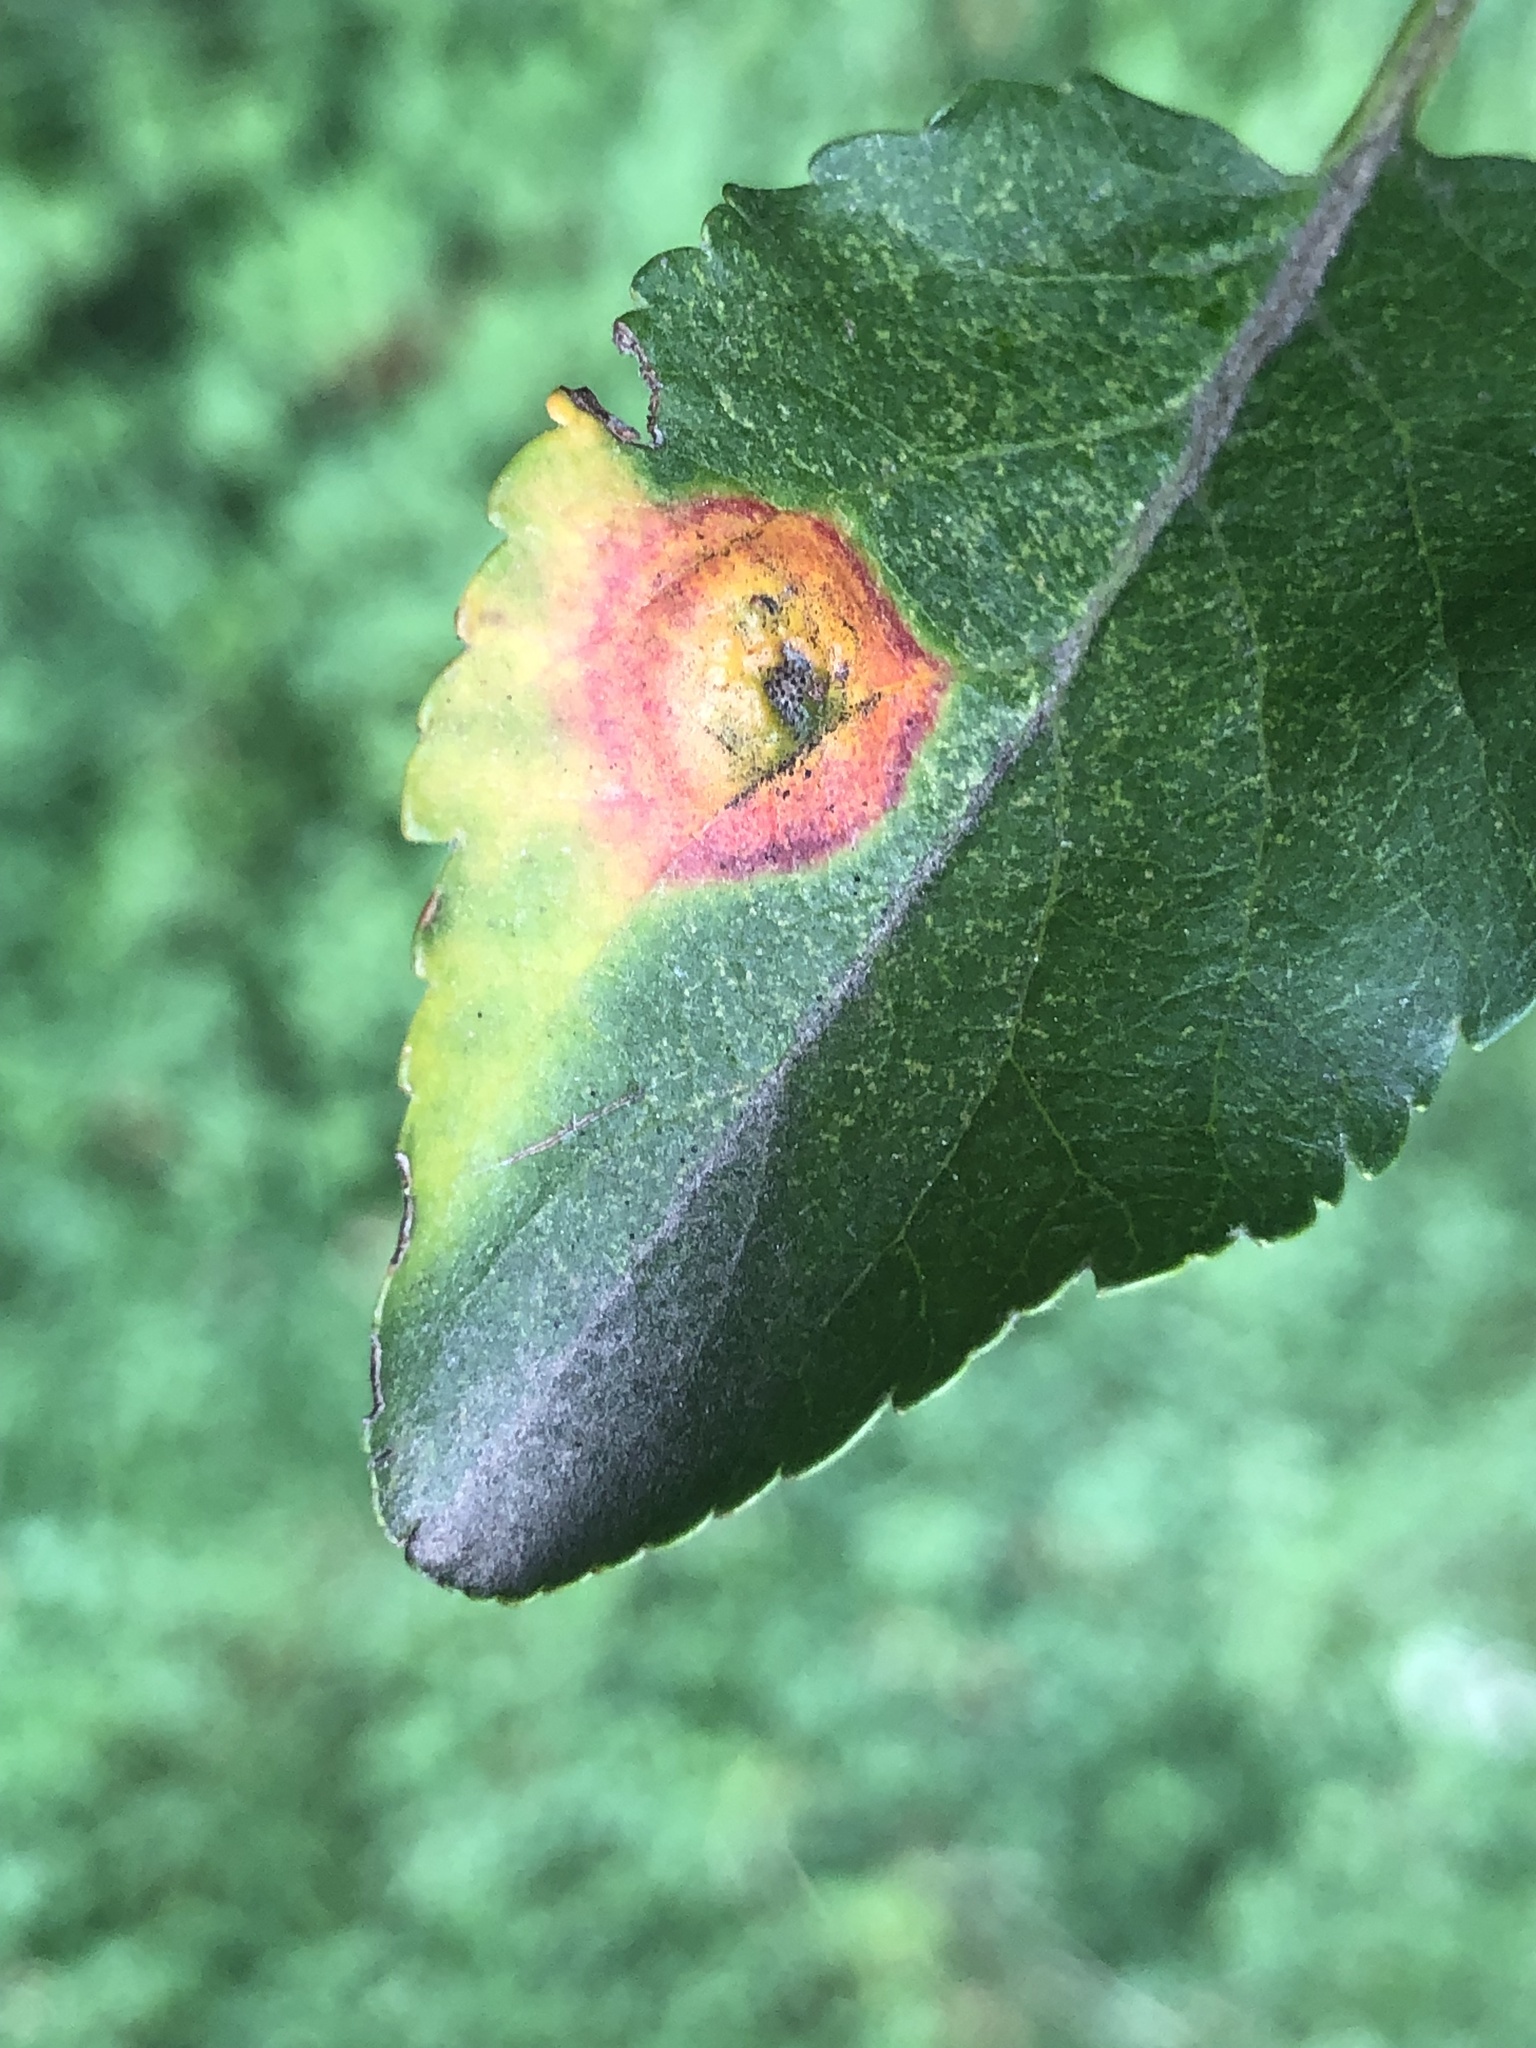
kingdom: Fungi
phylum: Basidiomycota
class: Pucciniomycetes
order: Pucciniales
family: Gymnosporangiaceae
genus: Gymnosporangium
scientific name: Gymnosporangium globosum
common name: Juniper-hawthorn rust
